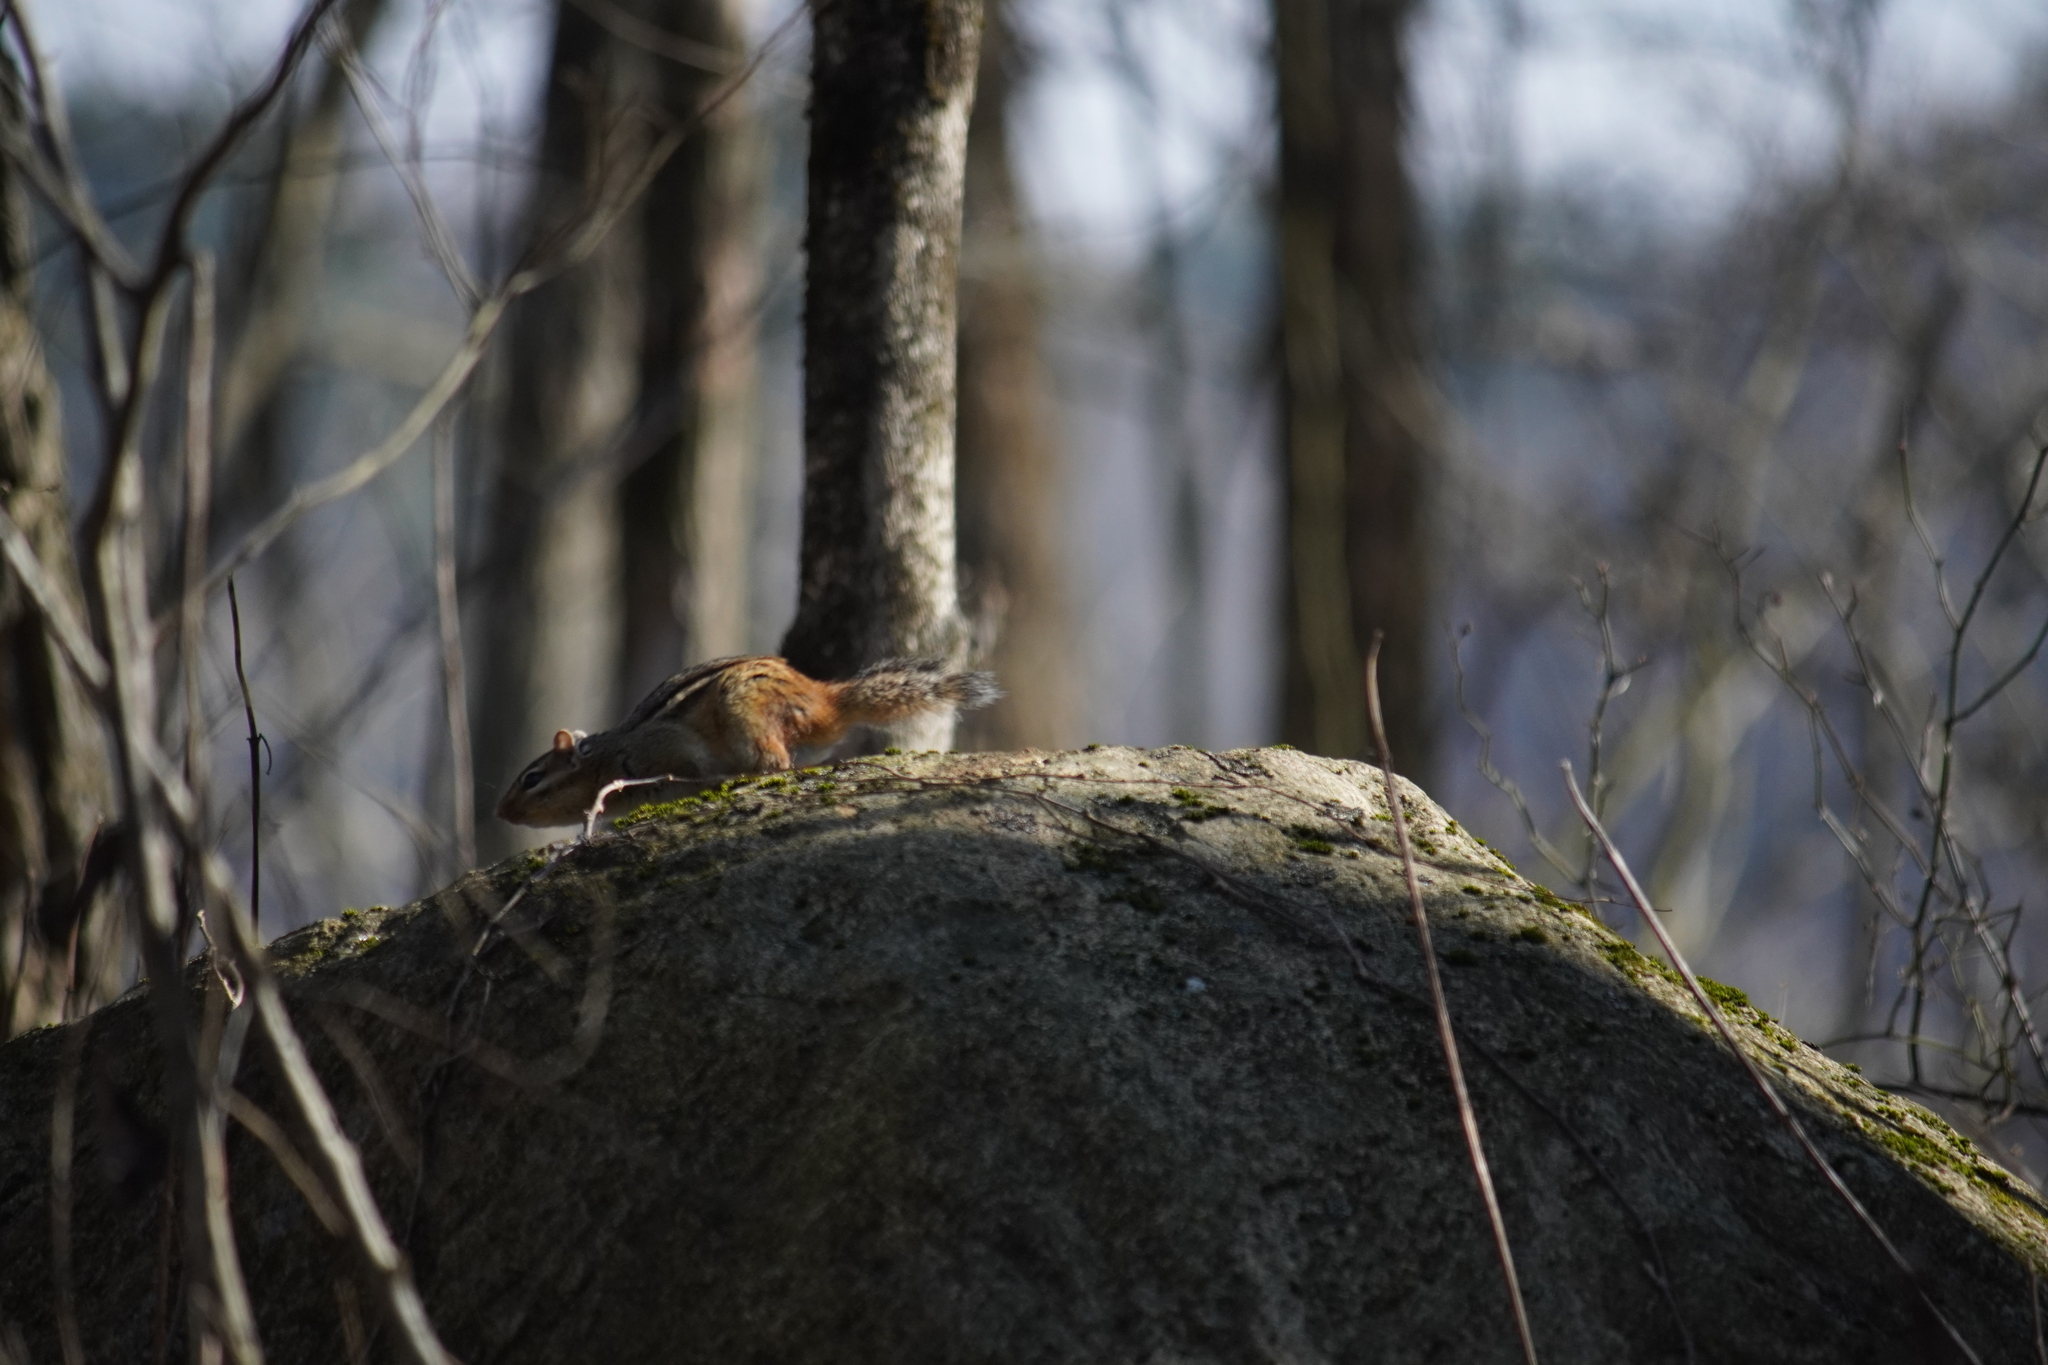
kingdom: Animalia
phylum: Chordata
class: Mammalia
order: Rodentia
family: Sciuridae
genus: Tamias
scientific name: Tamias striatus
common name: Eastern chipmunk
